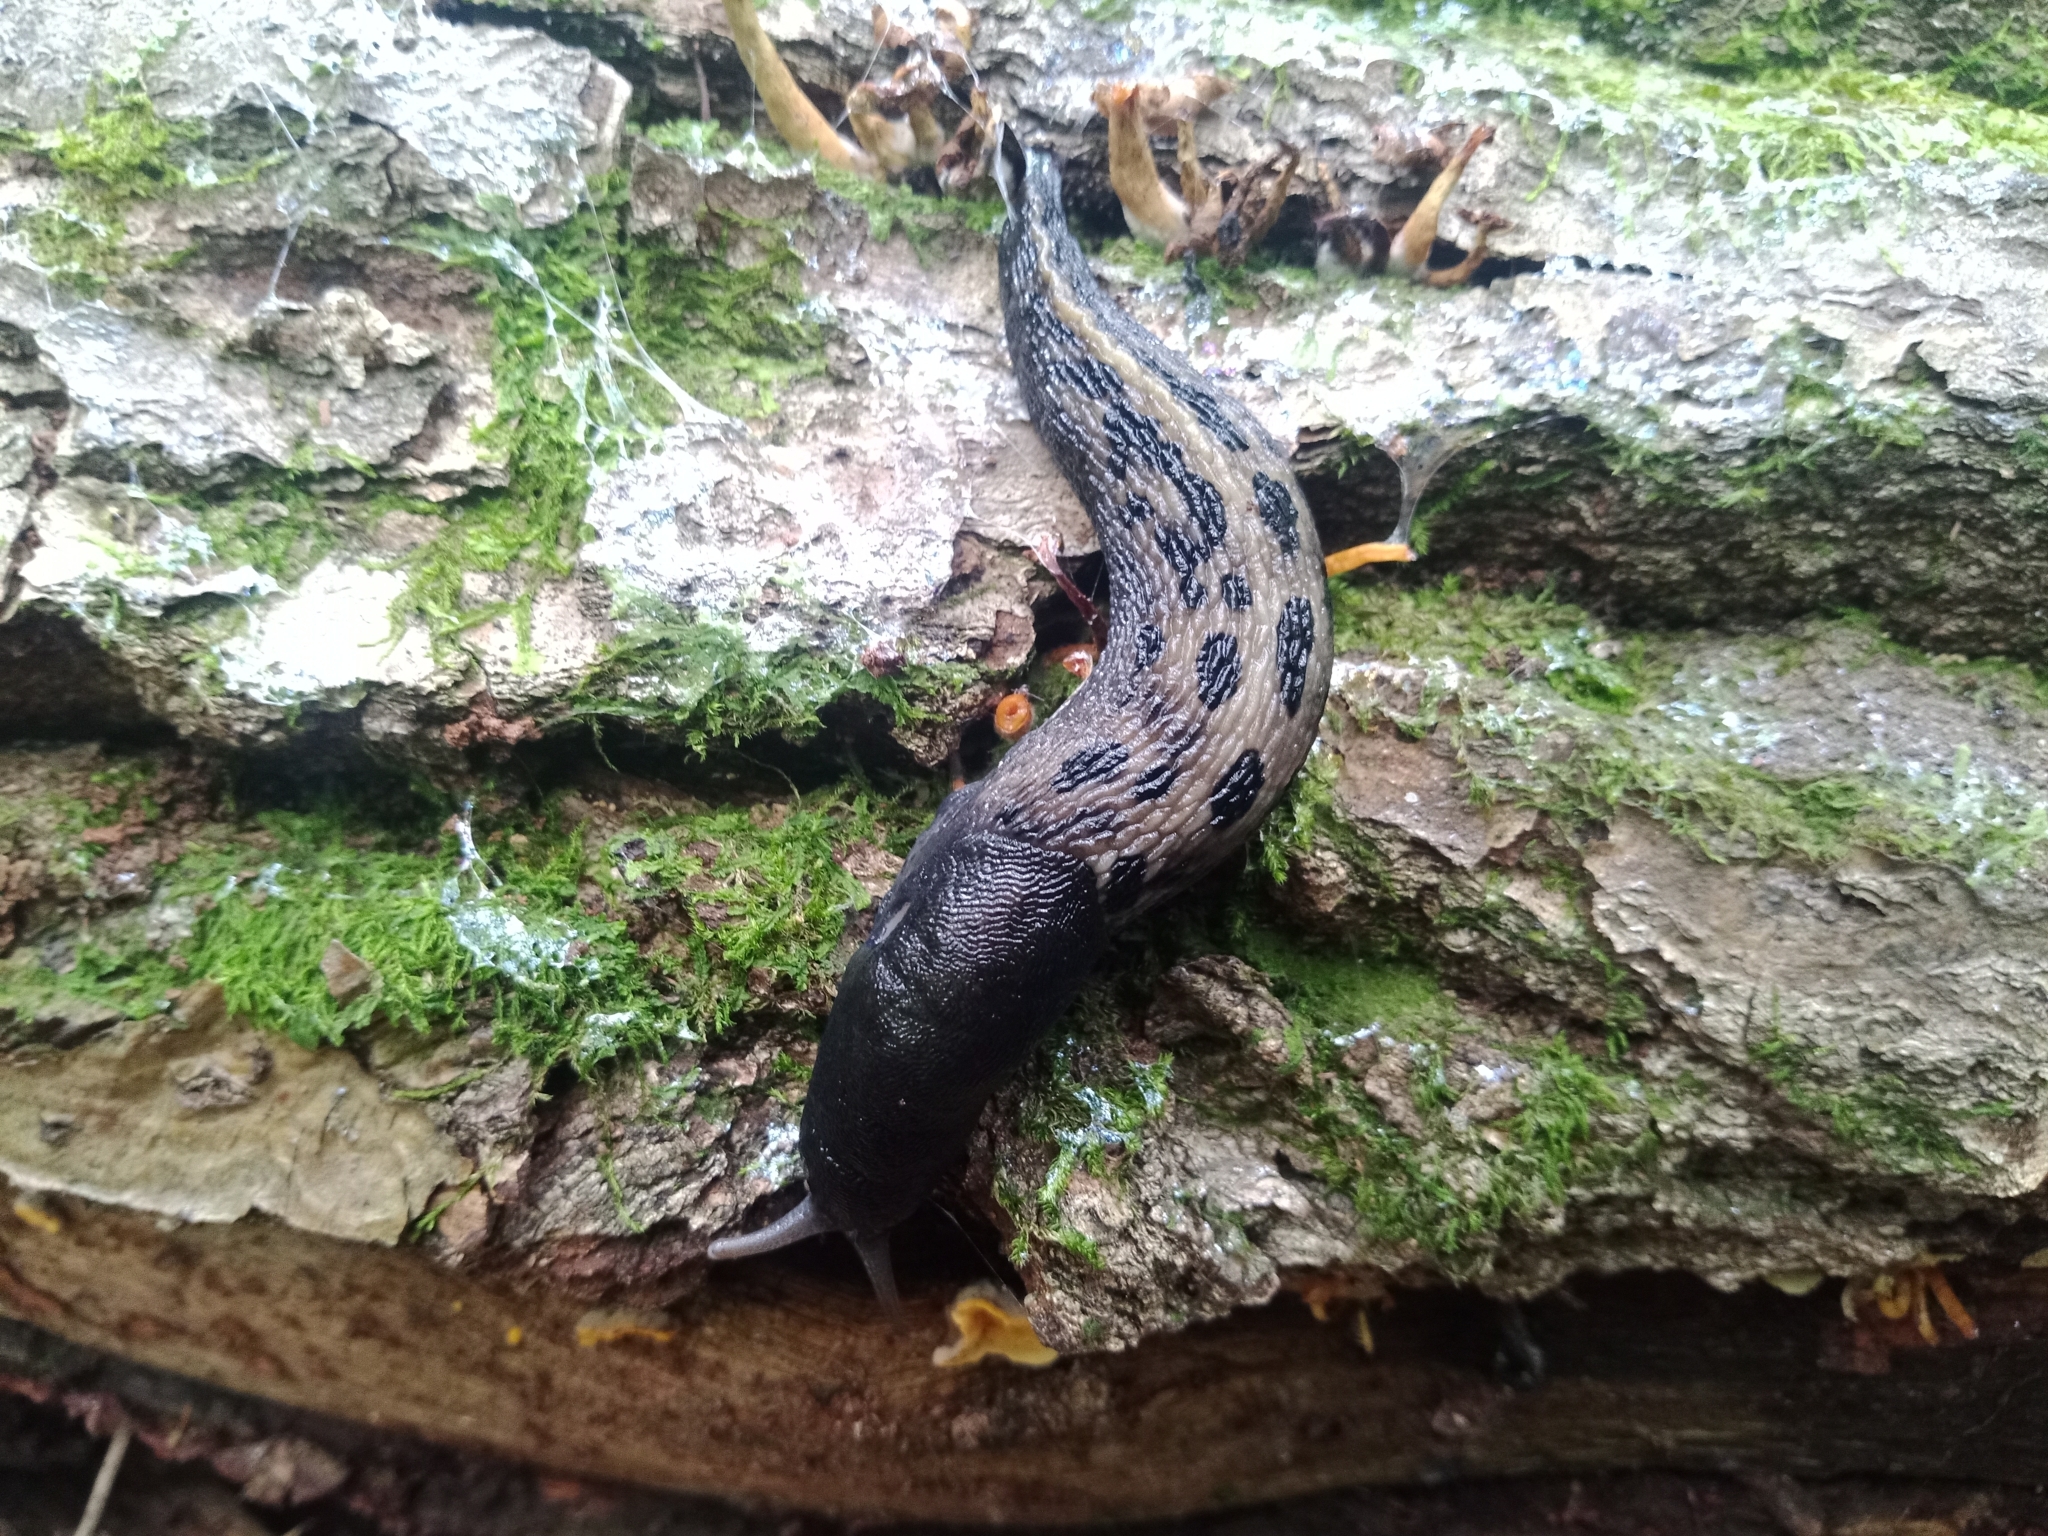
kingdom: Animalia
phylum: Mollusca
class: Gastropoda
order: Stylommatophora
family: Limacidae
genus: Limax
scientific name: Limax cinereoniger
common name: Ash-black slug
